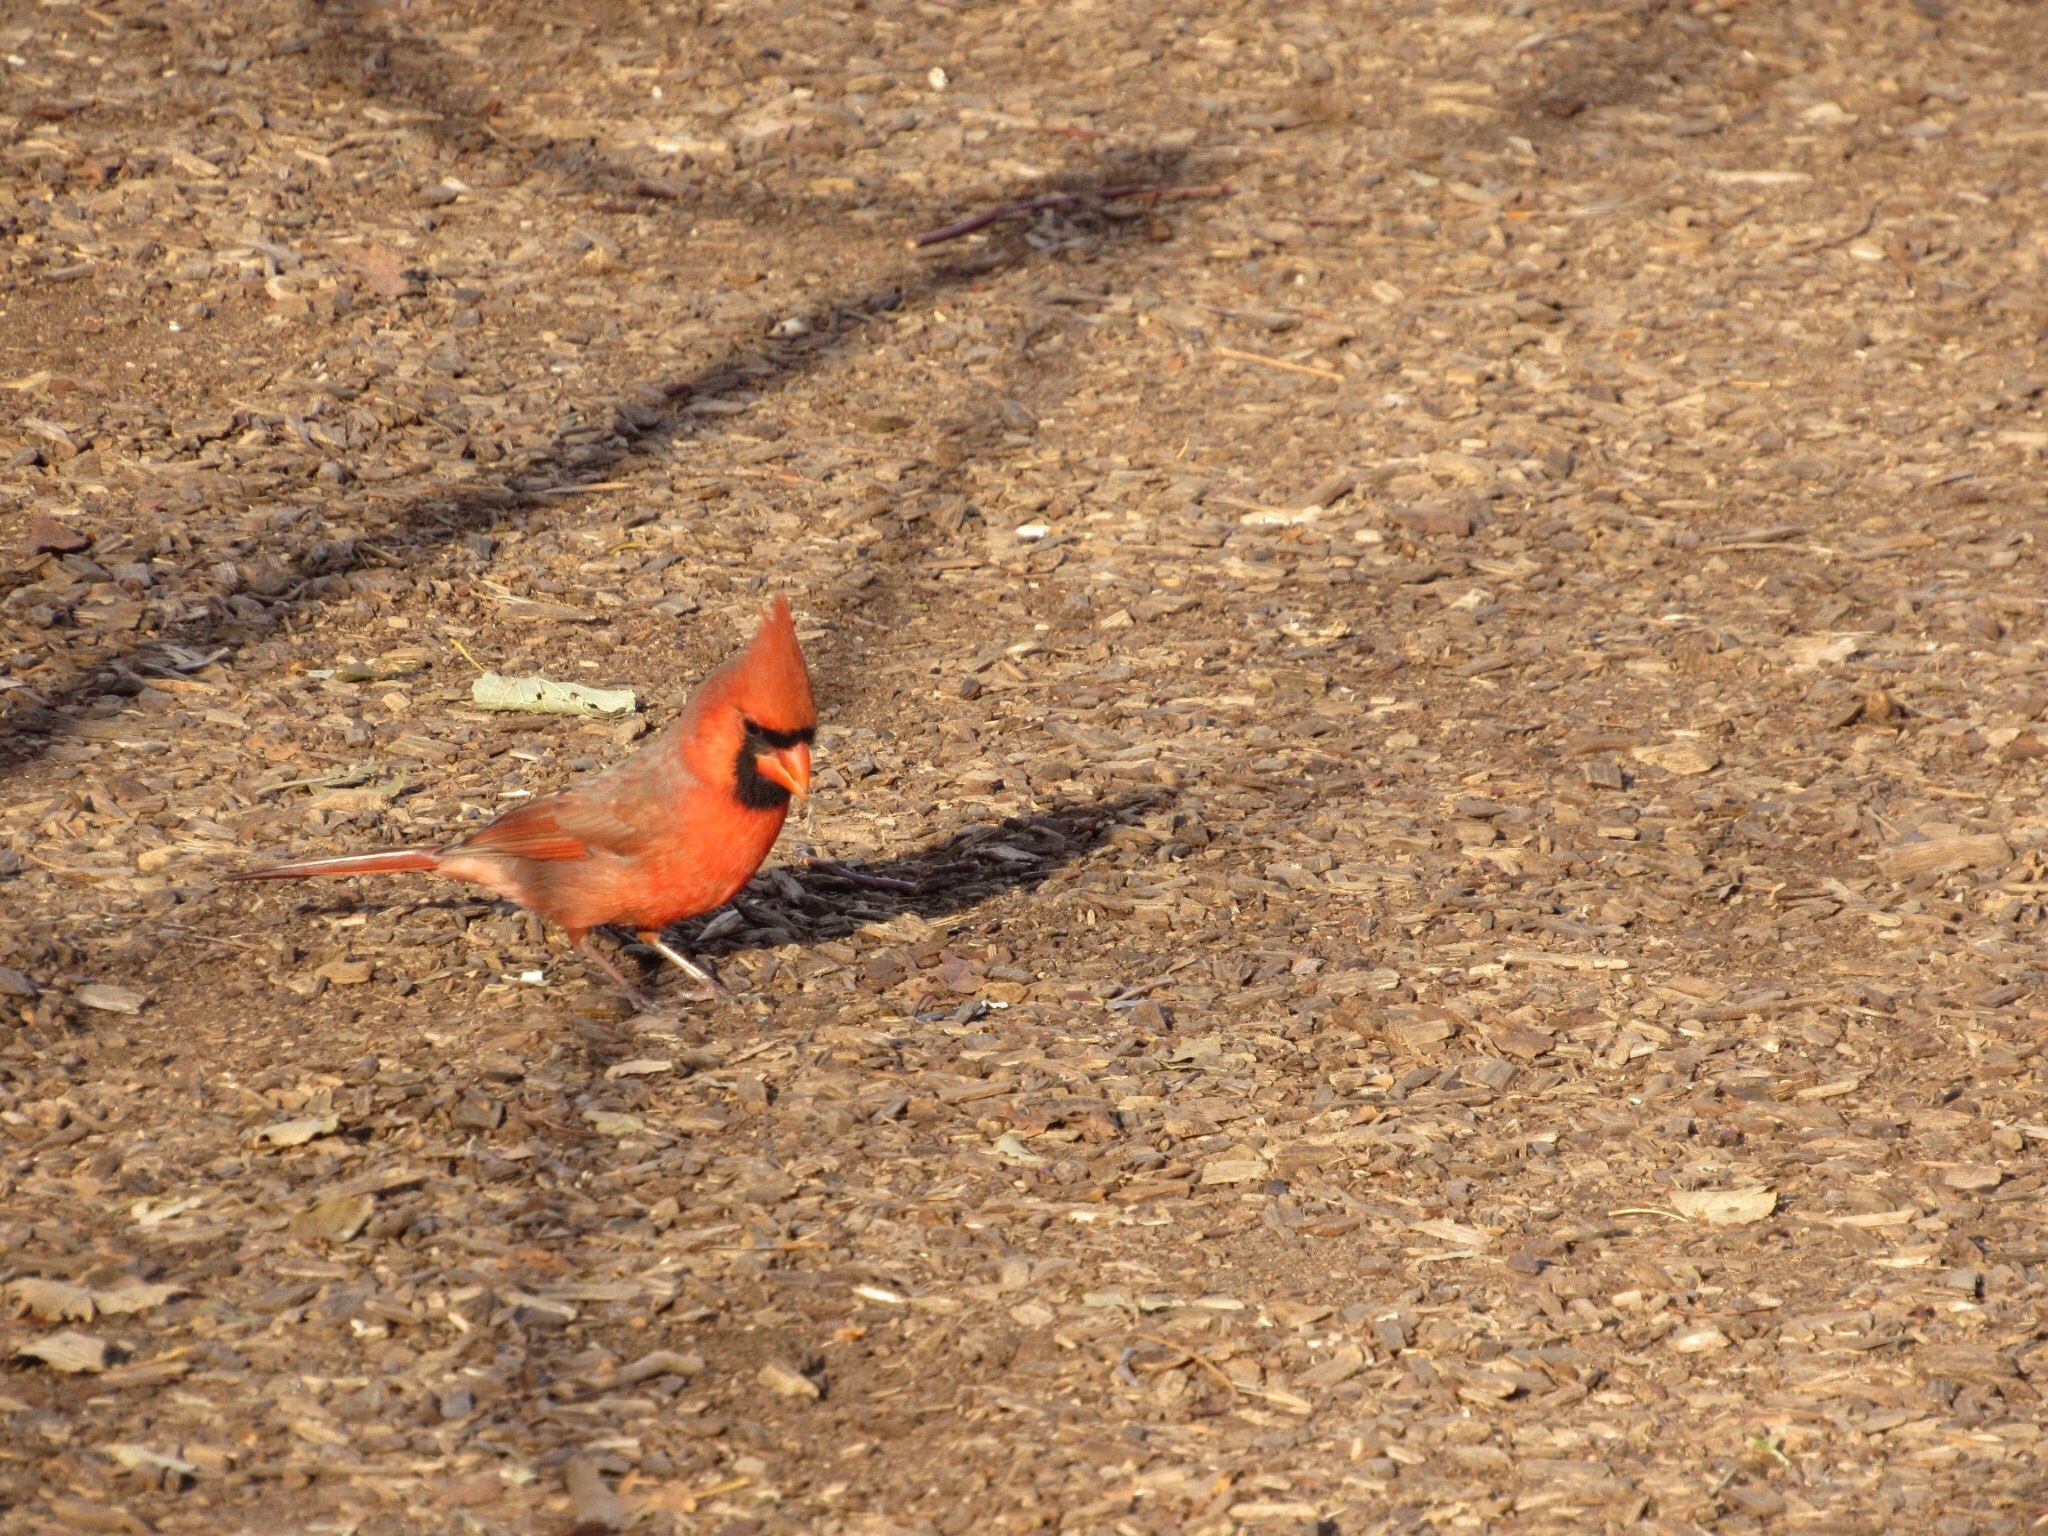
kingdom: Animalia
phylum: Chordata
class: Aves
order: Passeriformes
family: Cardinalidae
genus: Cardinalis
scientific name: Cardinalis cardinalis
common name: Northern cardinal
